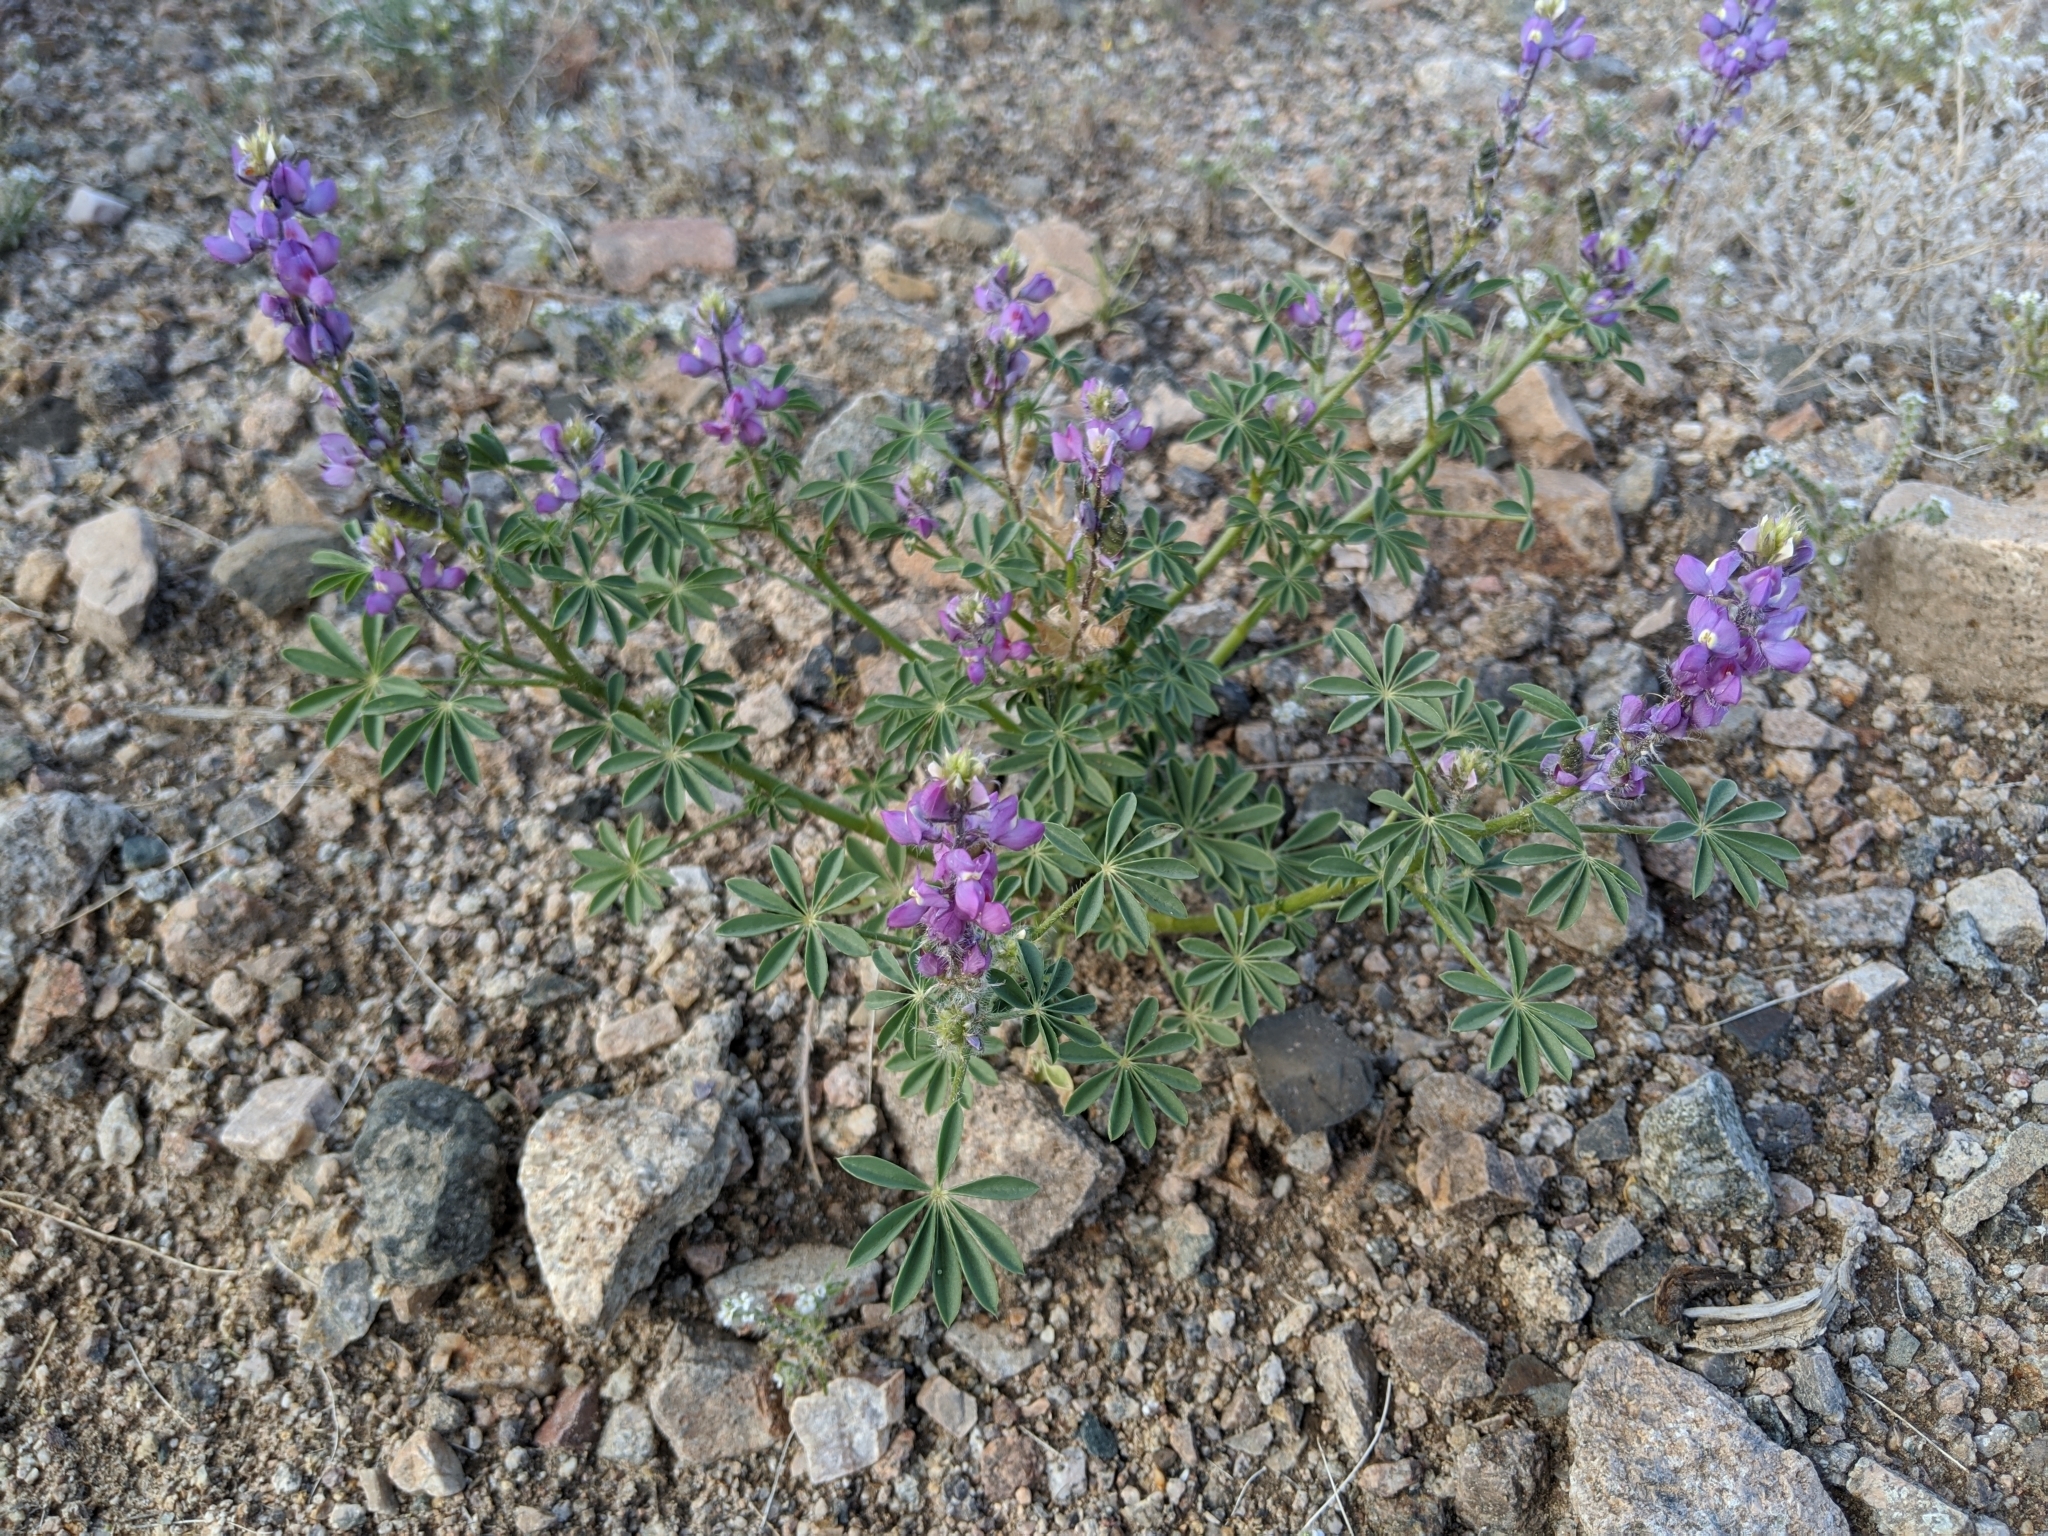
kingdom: Plantae
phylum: Tracheophyta
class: Magnoliopsida
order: Fabales
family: Fabaceae
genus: Lupinus
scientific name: Lupinus arizonicus
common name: Arizona lupine
